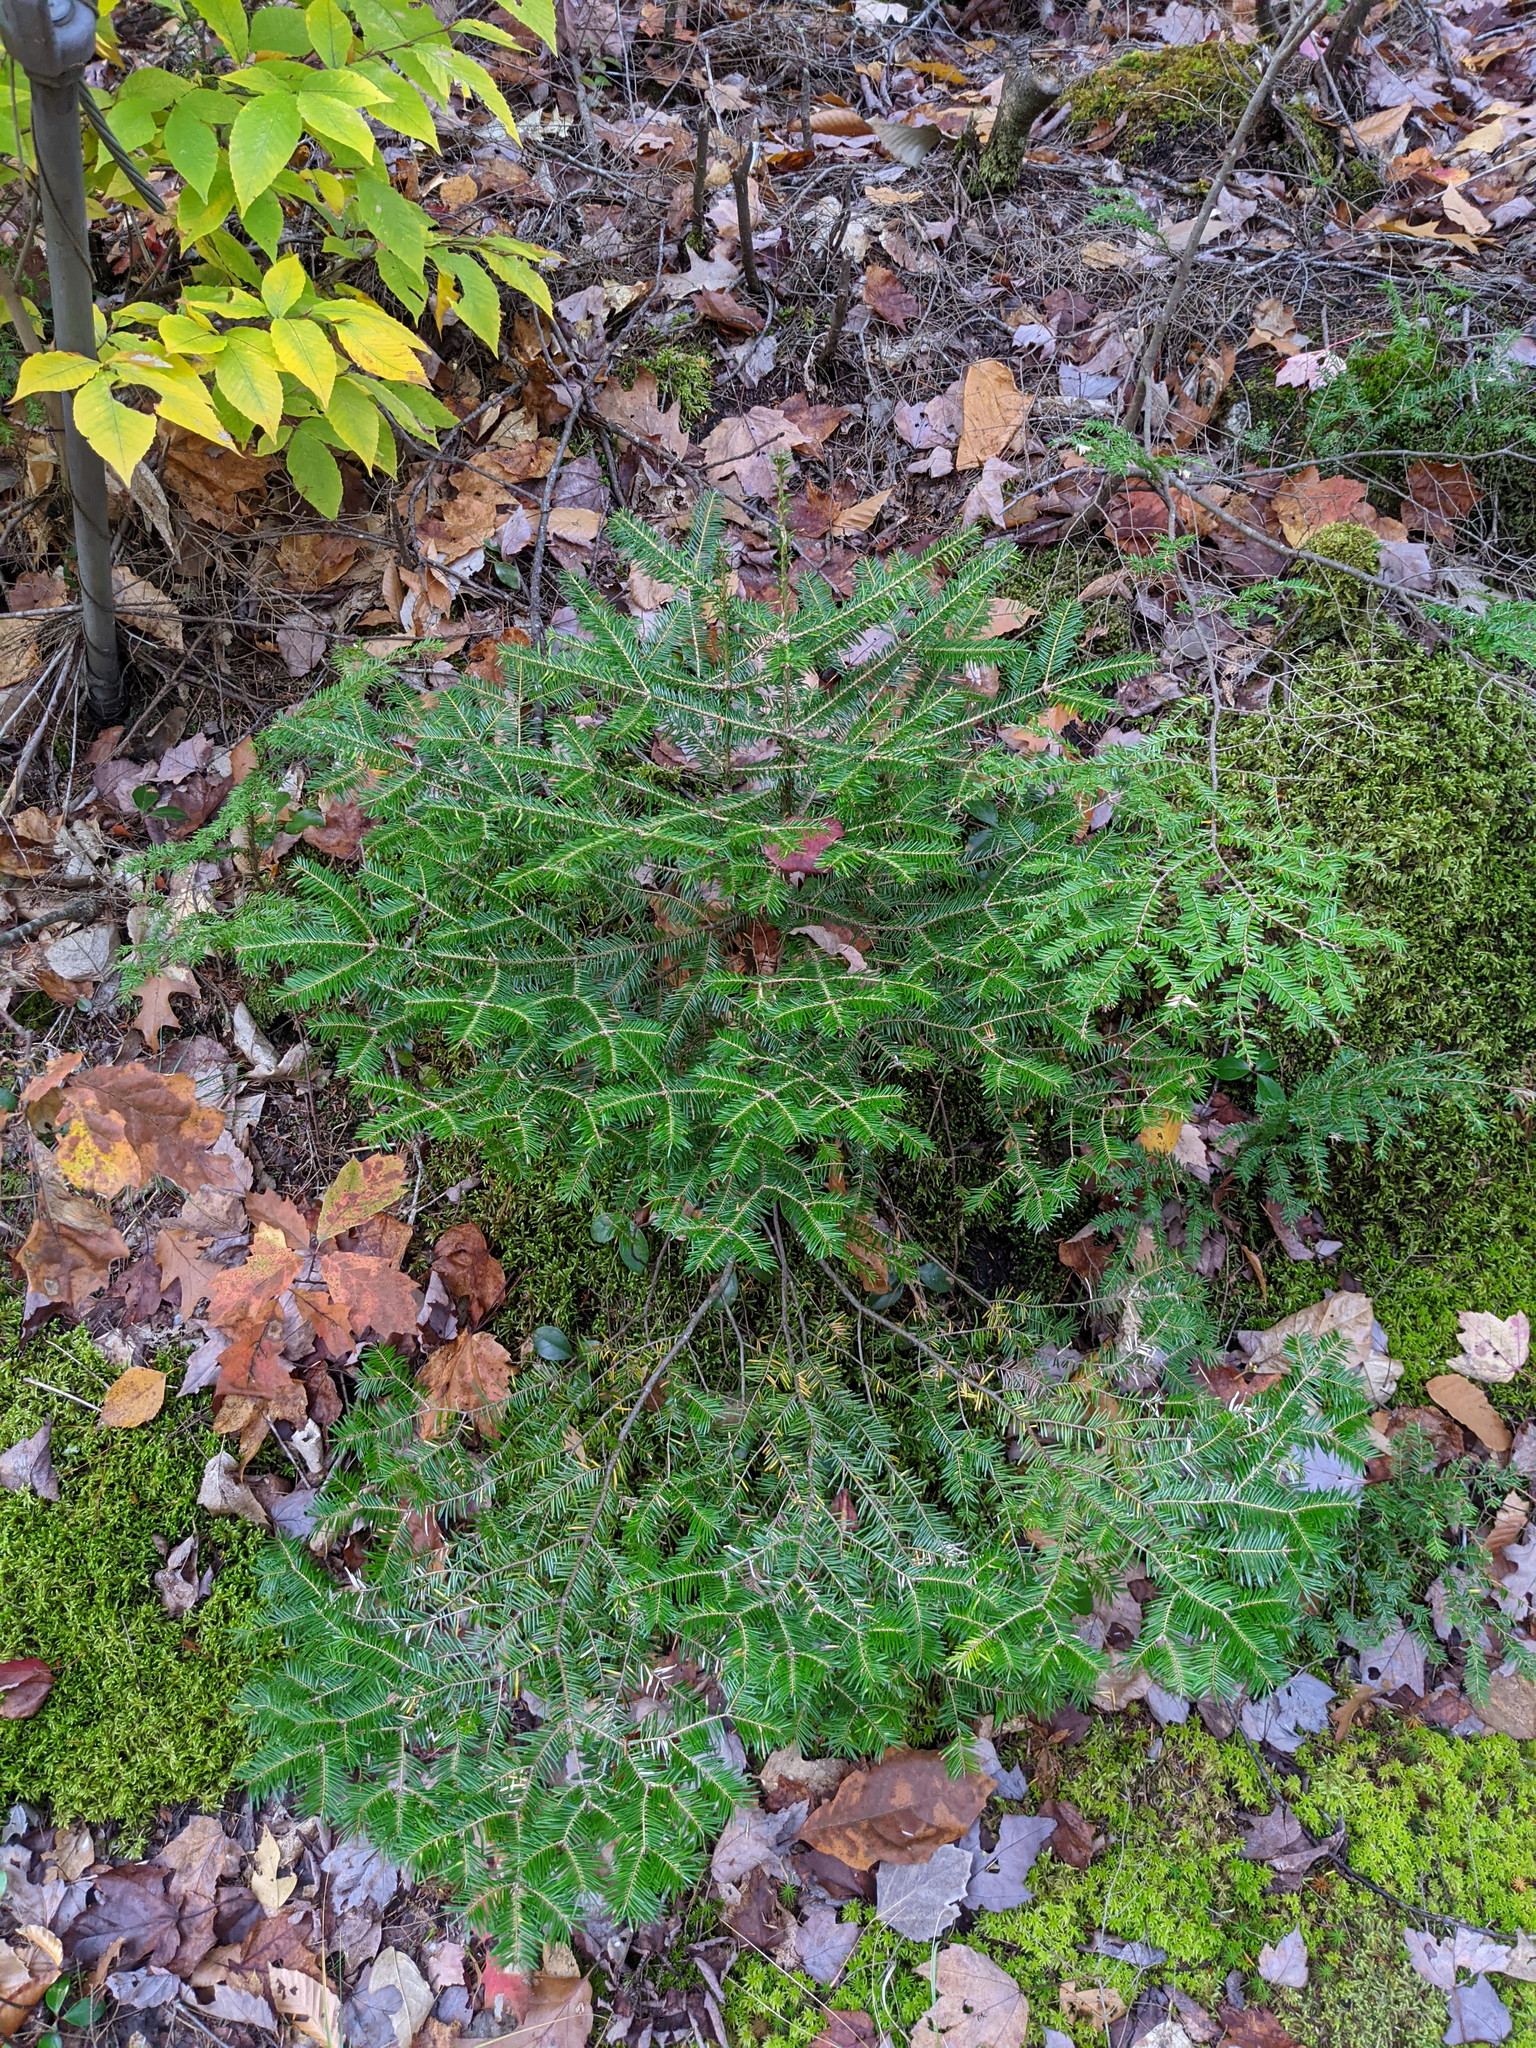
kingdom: Plantae
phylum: Tracheophyta
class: Pinopsida
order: Pinales
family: Pinaceae
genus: Abies
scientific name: Abies balsamea
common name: Balsam fir
